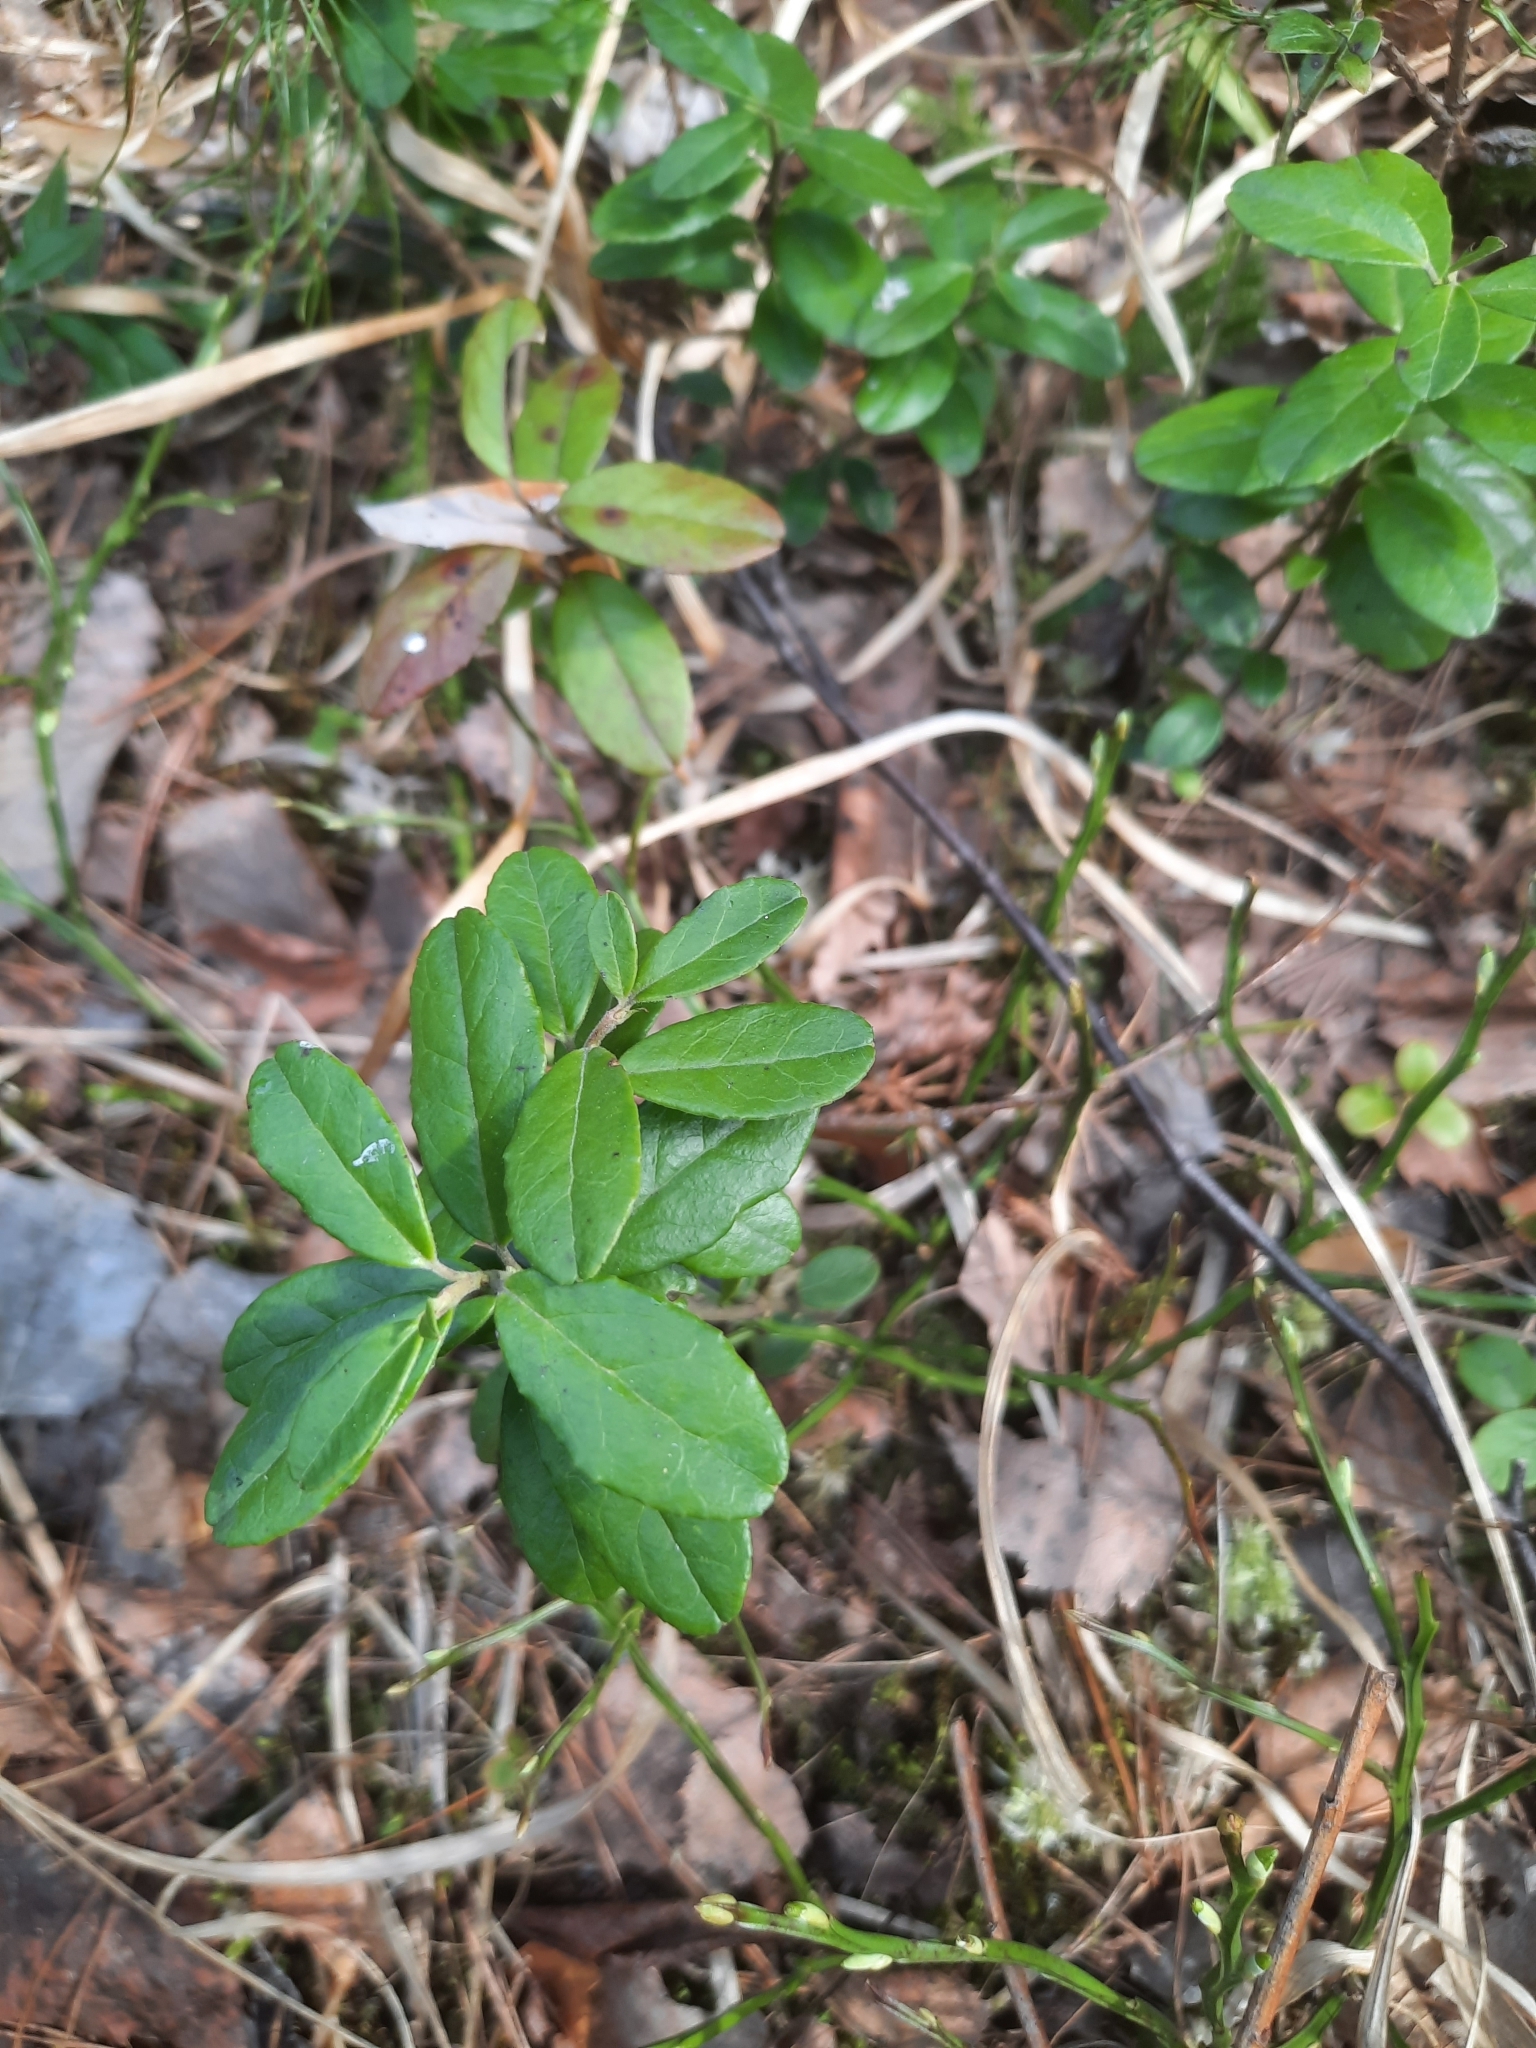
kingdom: Plantae
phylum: Tracheophyta
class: Magnoliopsida
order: Ericales
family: Ericaceae
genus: Vaccinium
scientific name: Vaccinium vitis-idaea
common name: Cowberry
